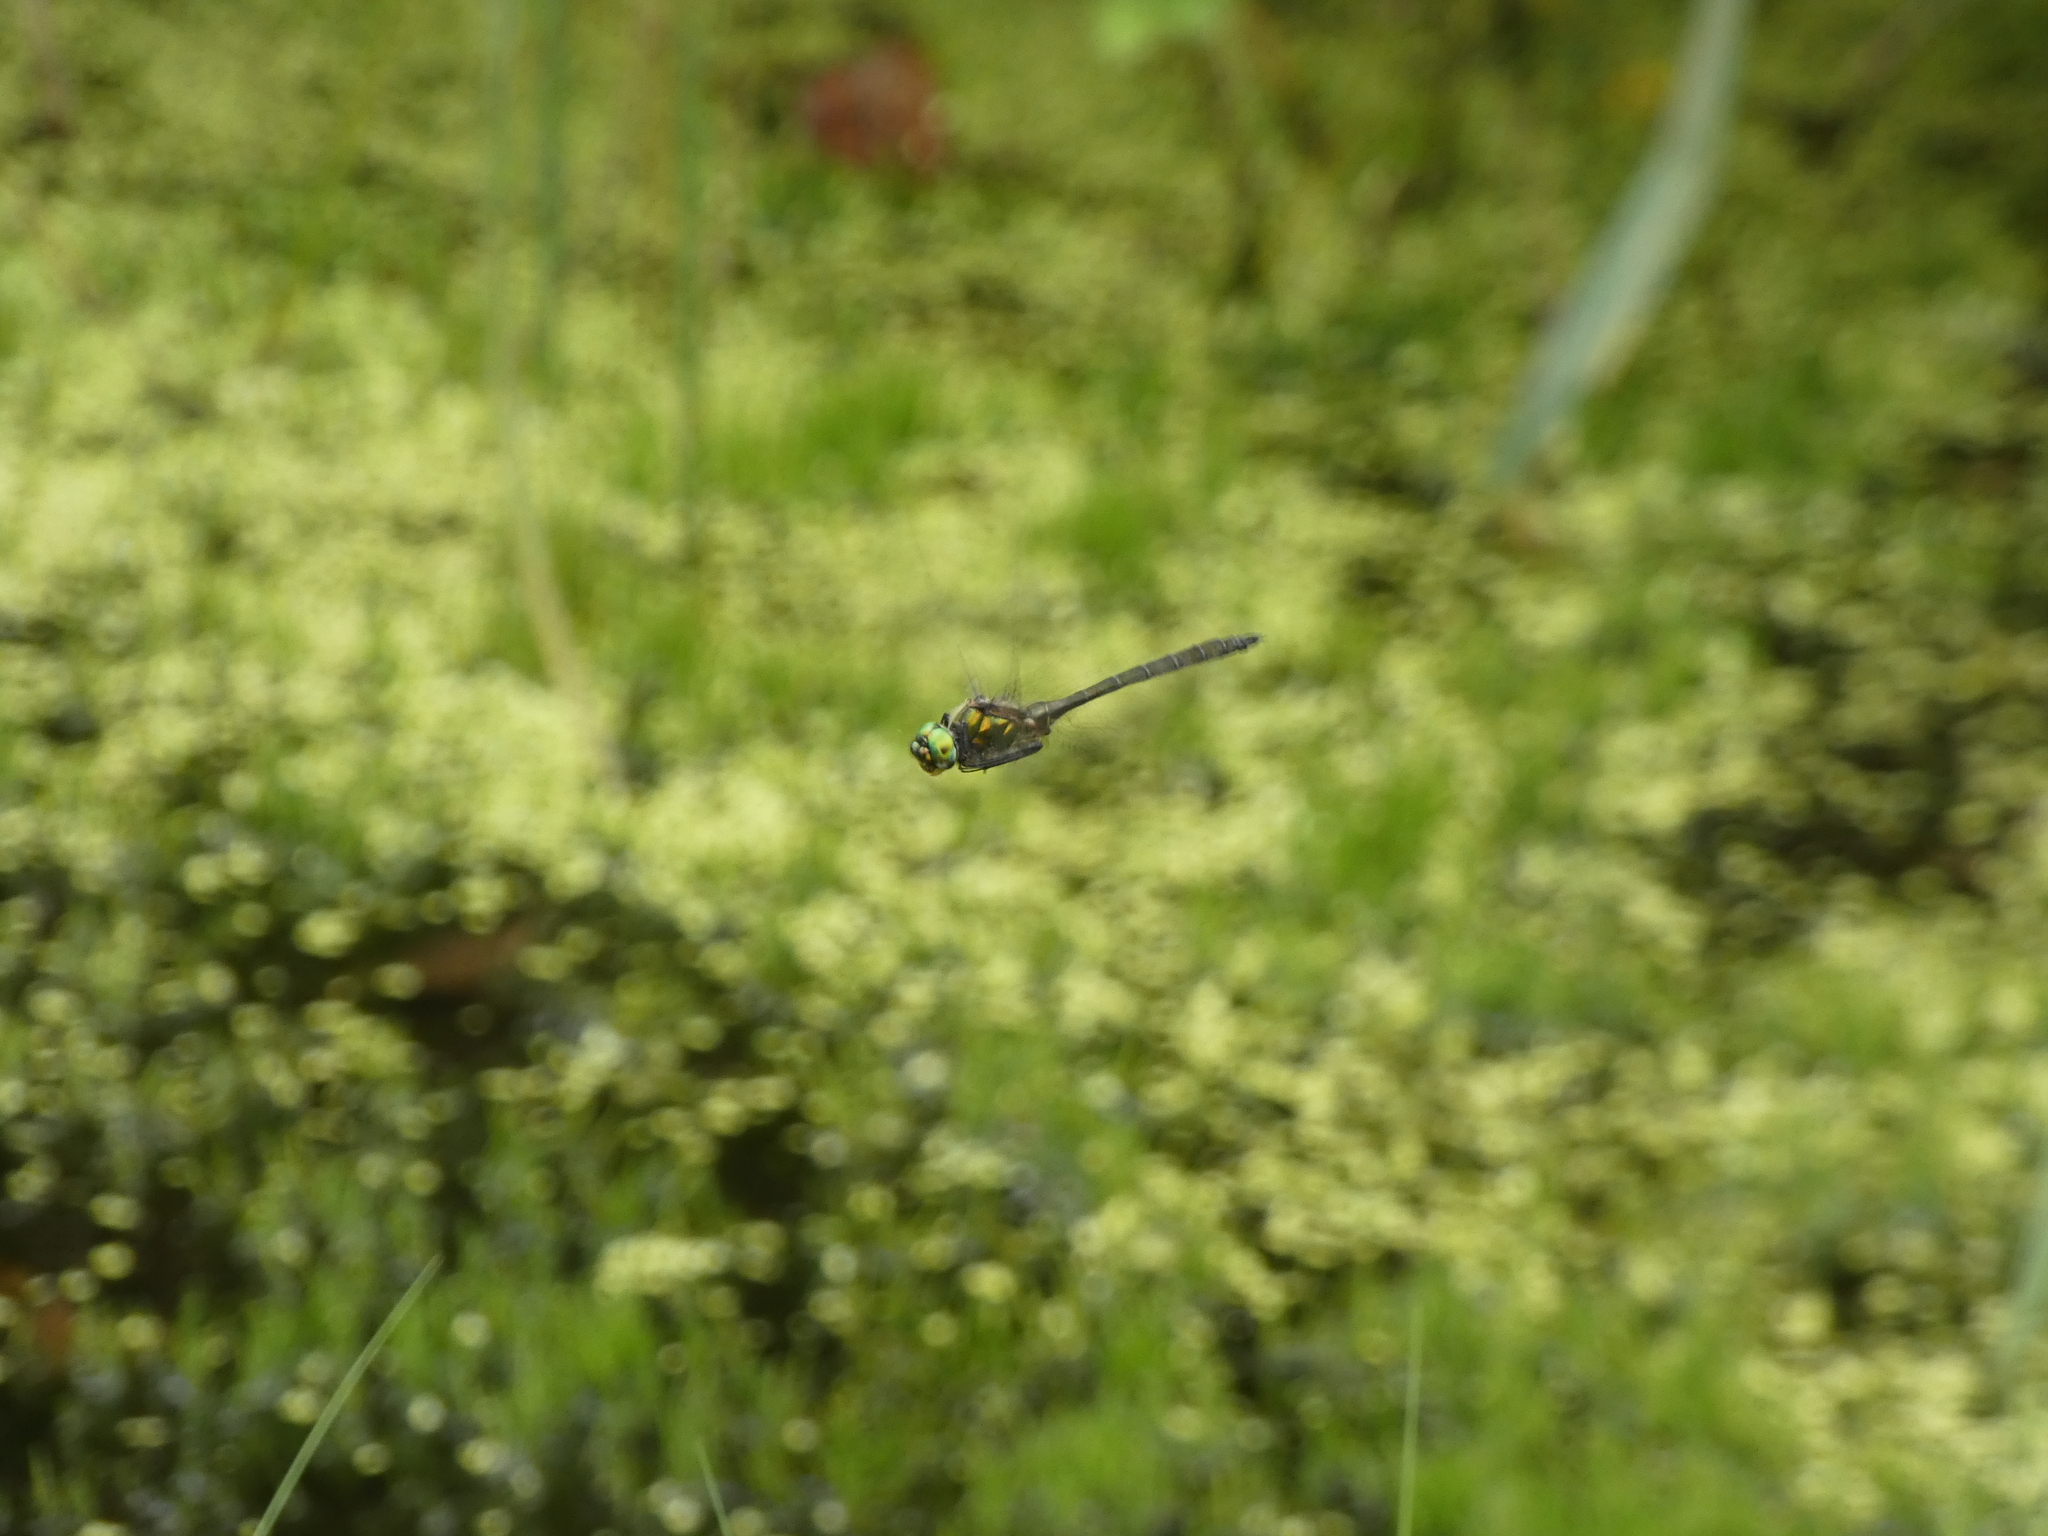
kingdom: Animalia
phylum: Arthropoda
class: Insecta
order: Odonata
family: Corduliidae
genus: Somatochlora
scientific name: Somatochlora metallica
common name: Brilliant emerald
